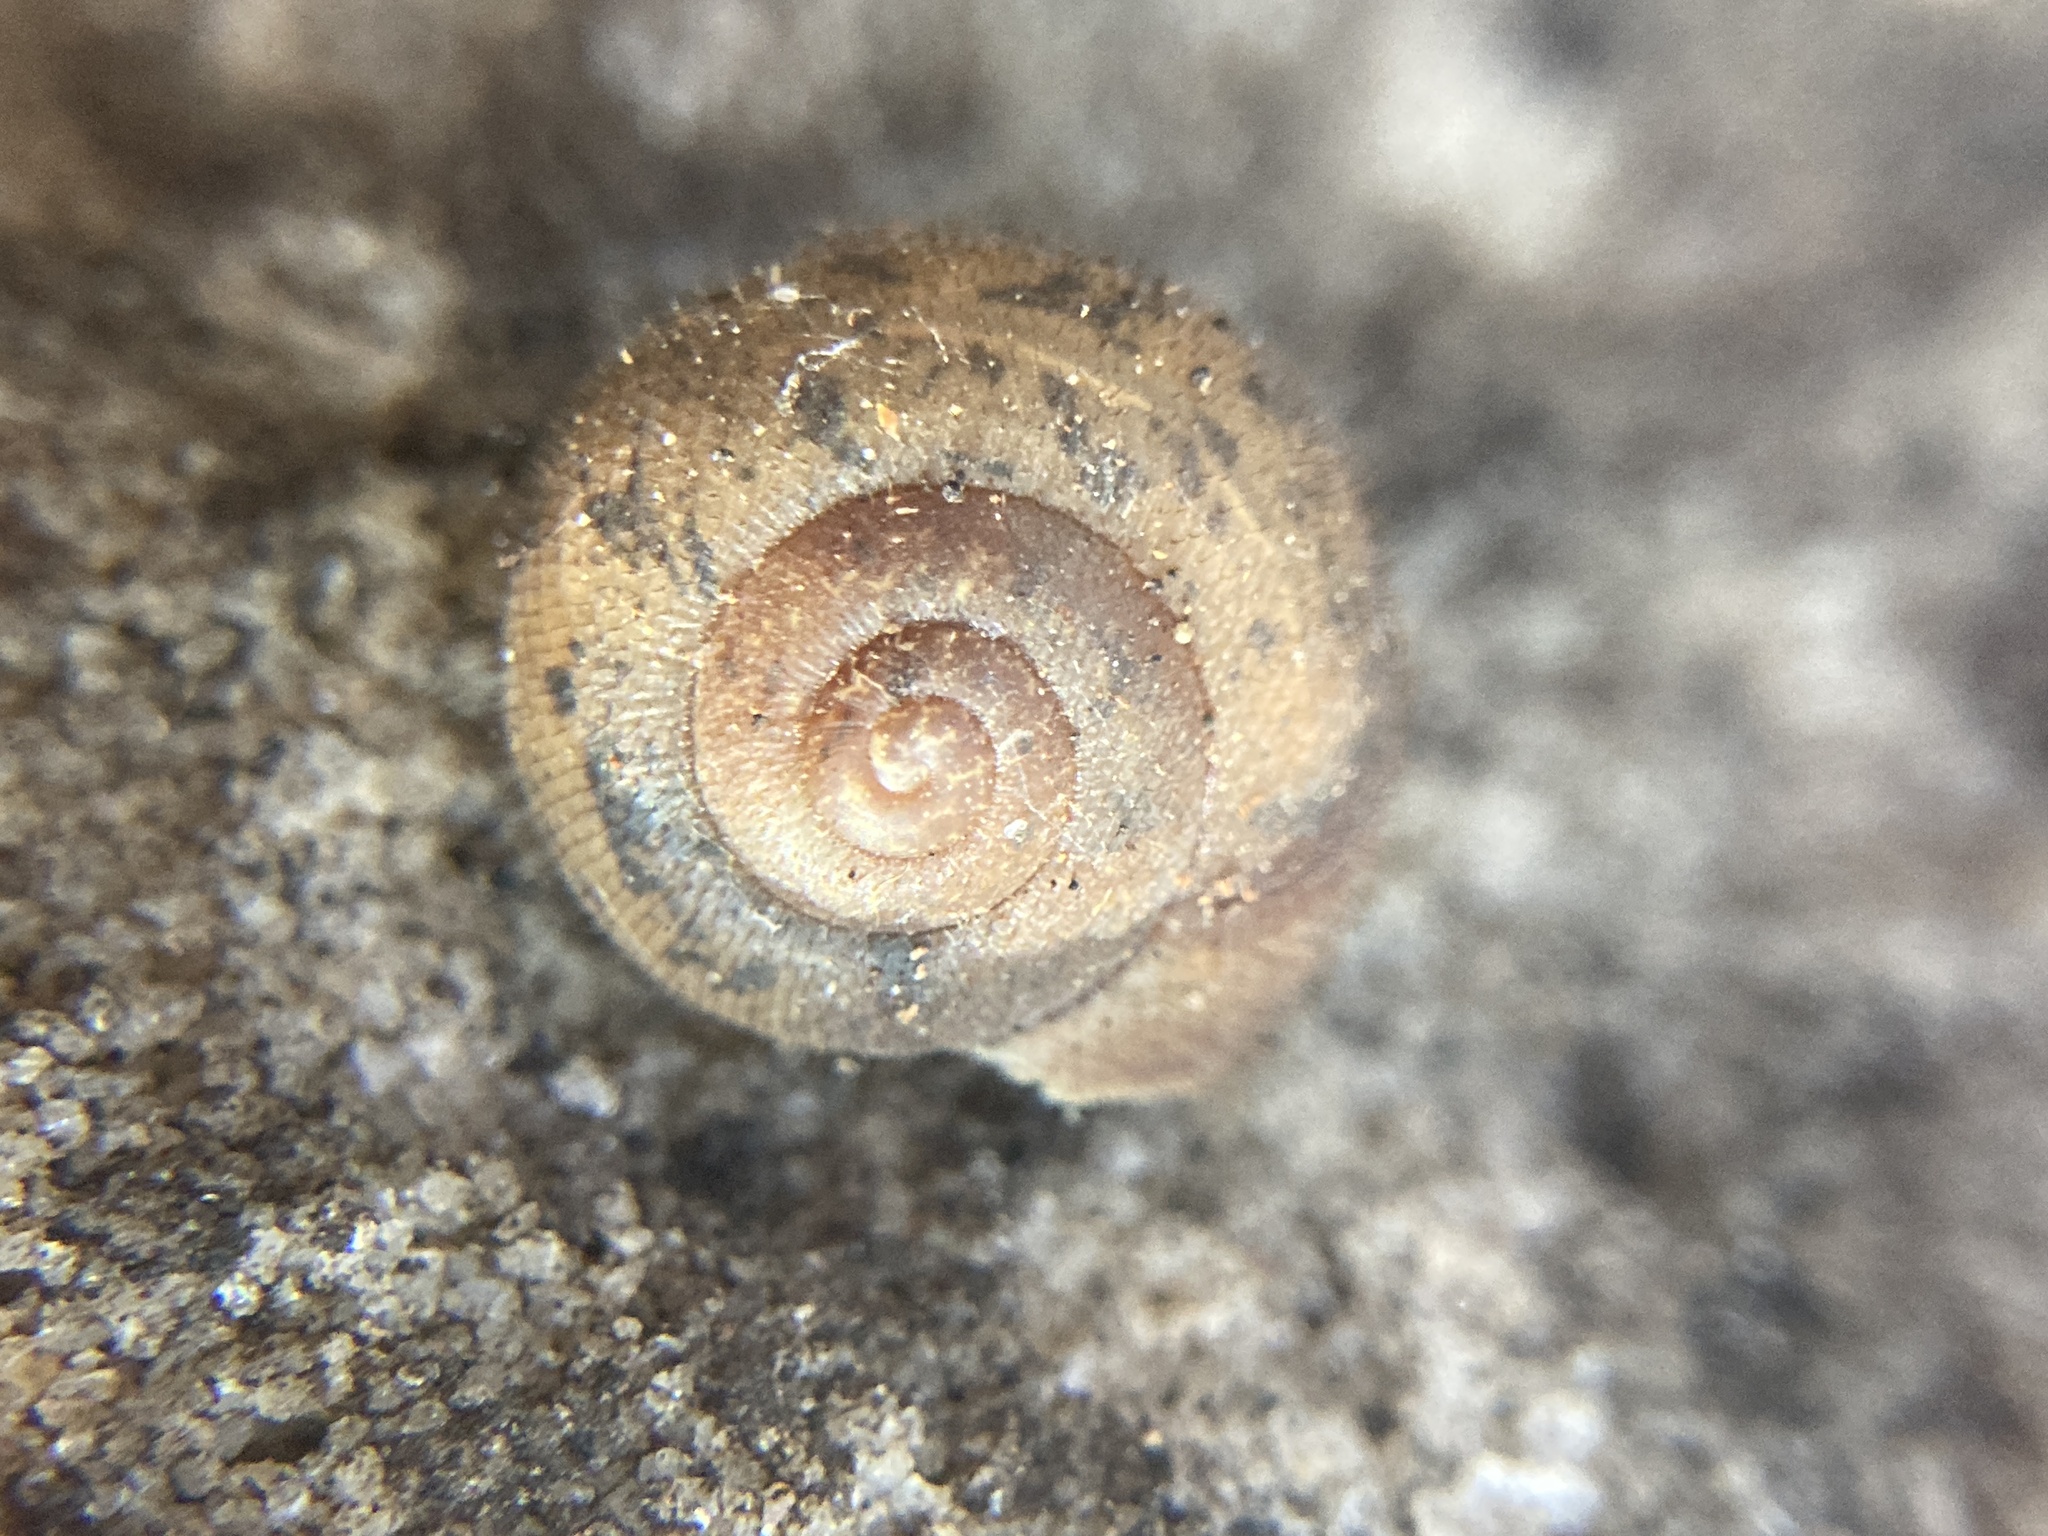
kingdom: Animalia
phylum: Mollusca
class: Gastropoda
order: Stylommatophora
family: Camaenidae
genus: Austrochloritis
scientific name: Austrochloritis metuenda
